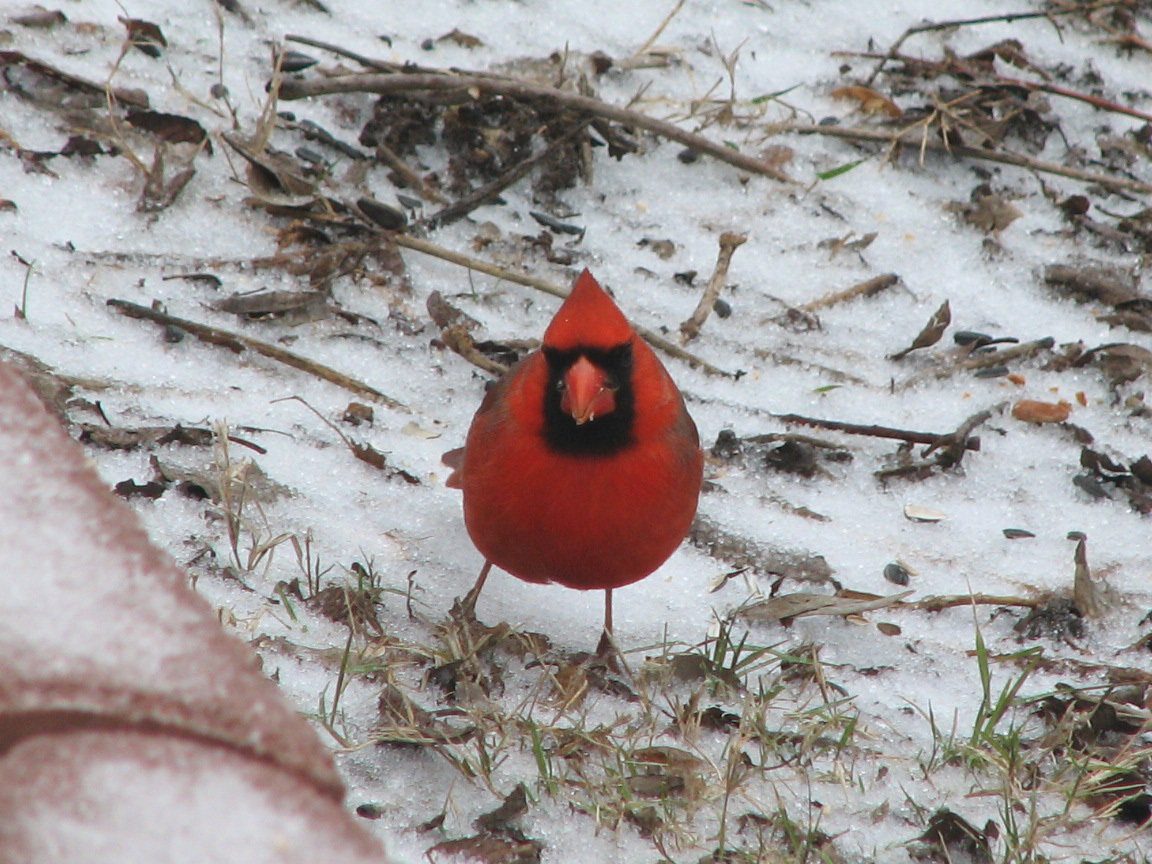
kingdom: Animalia
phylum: Chordata
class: Aves
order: Passeriformes
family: Cardinalidae
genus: Cardinalis
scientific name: Cardinalis cardinalis
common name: Northern cardinal
